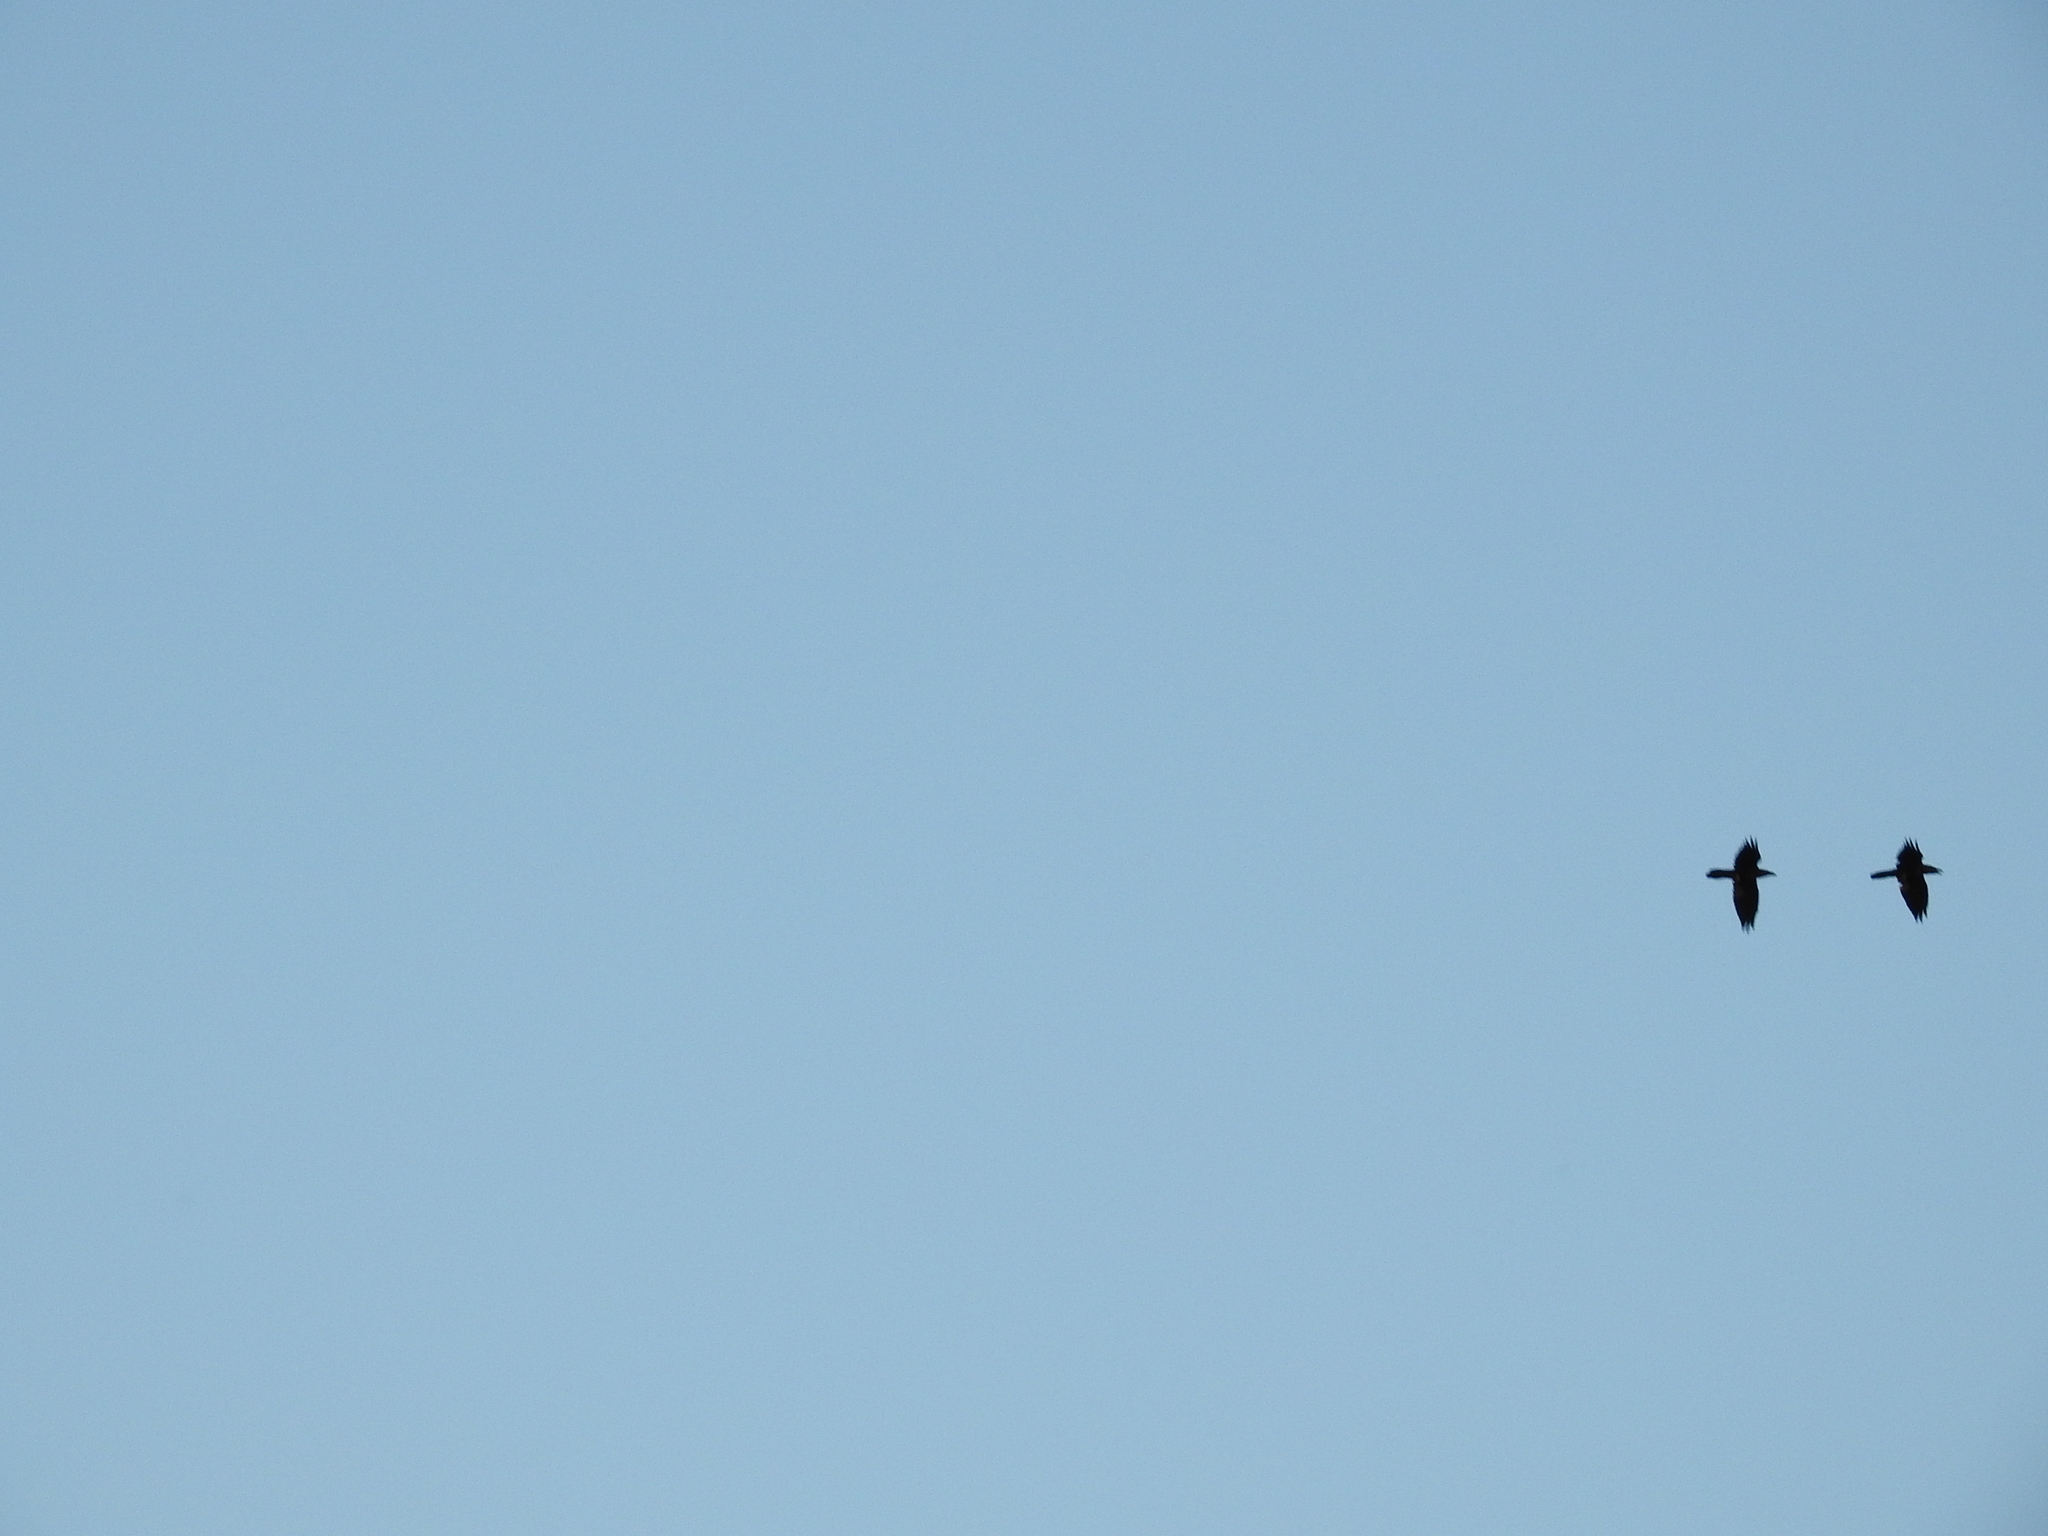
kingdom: Animalia
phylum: Chordata
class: Aves
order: Passeriformes
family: Corvidae
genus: Corvus
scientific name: Corvus corax
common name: Common raven
